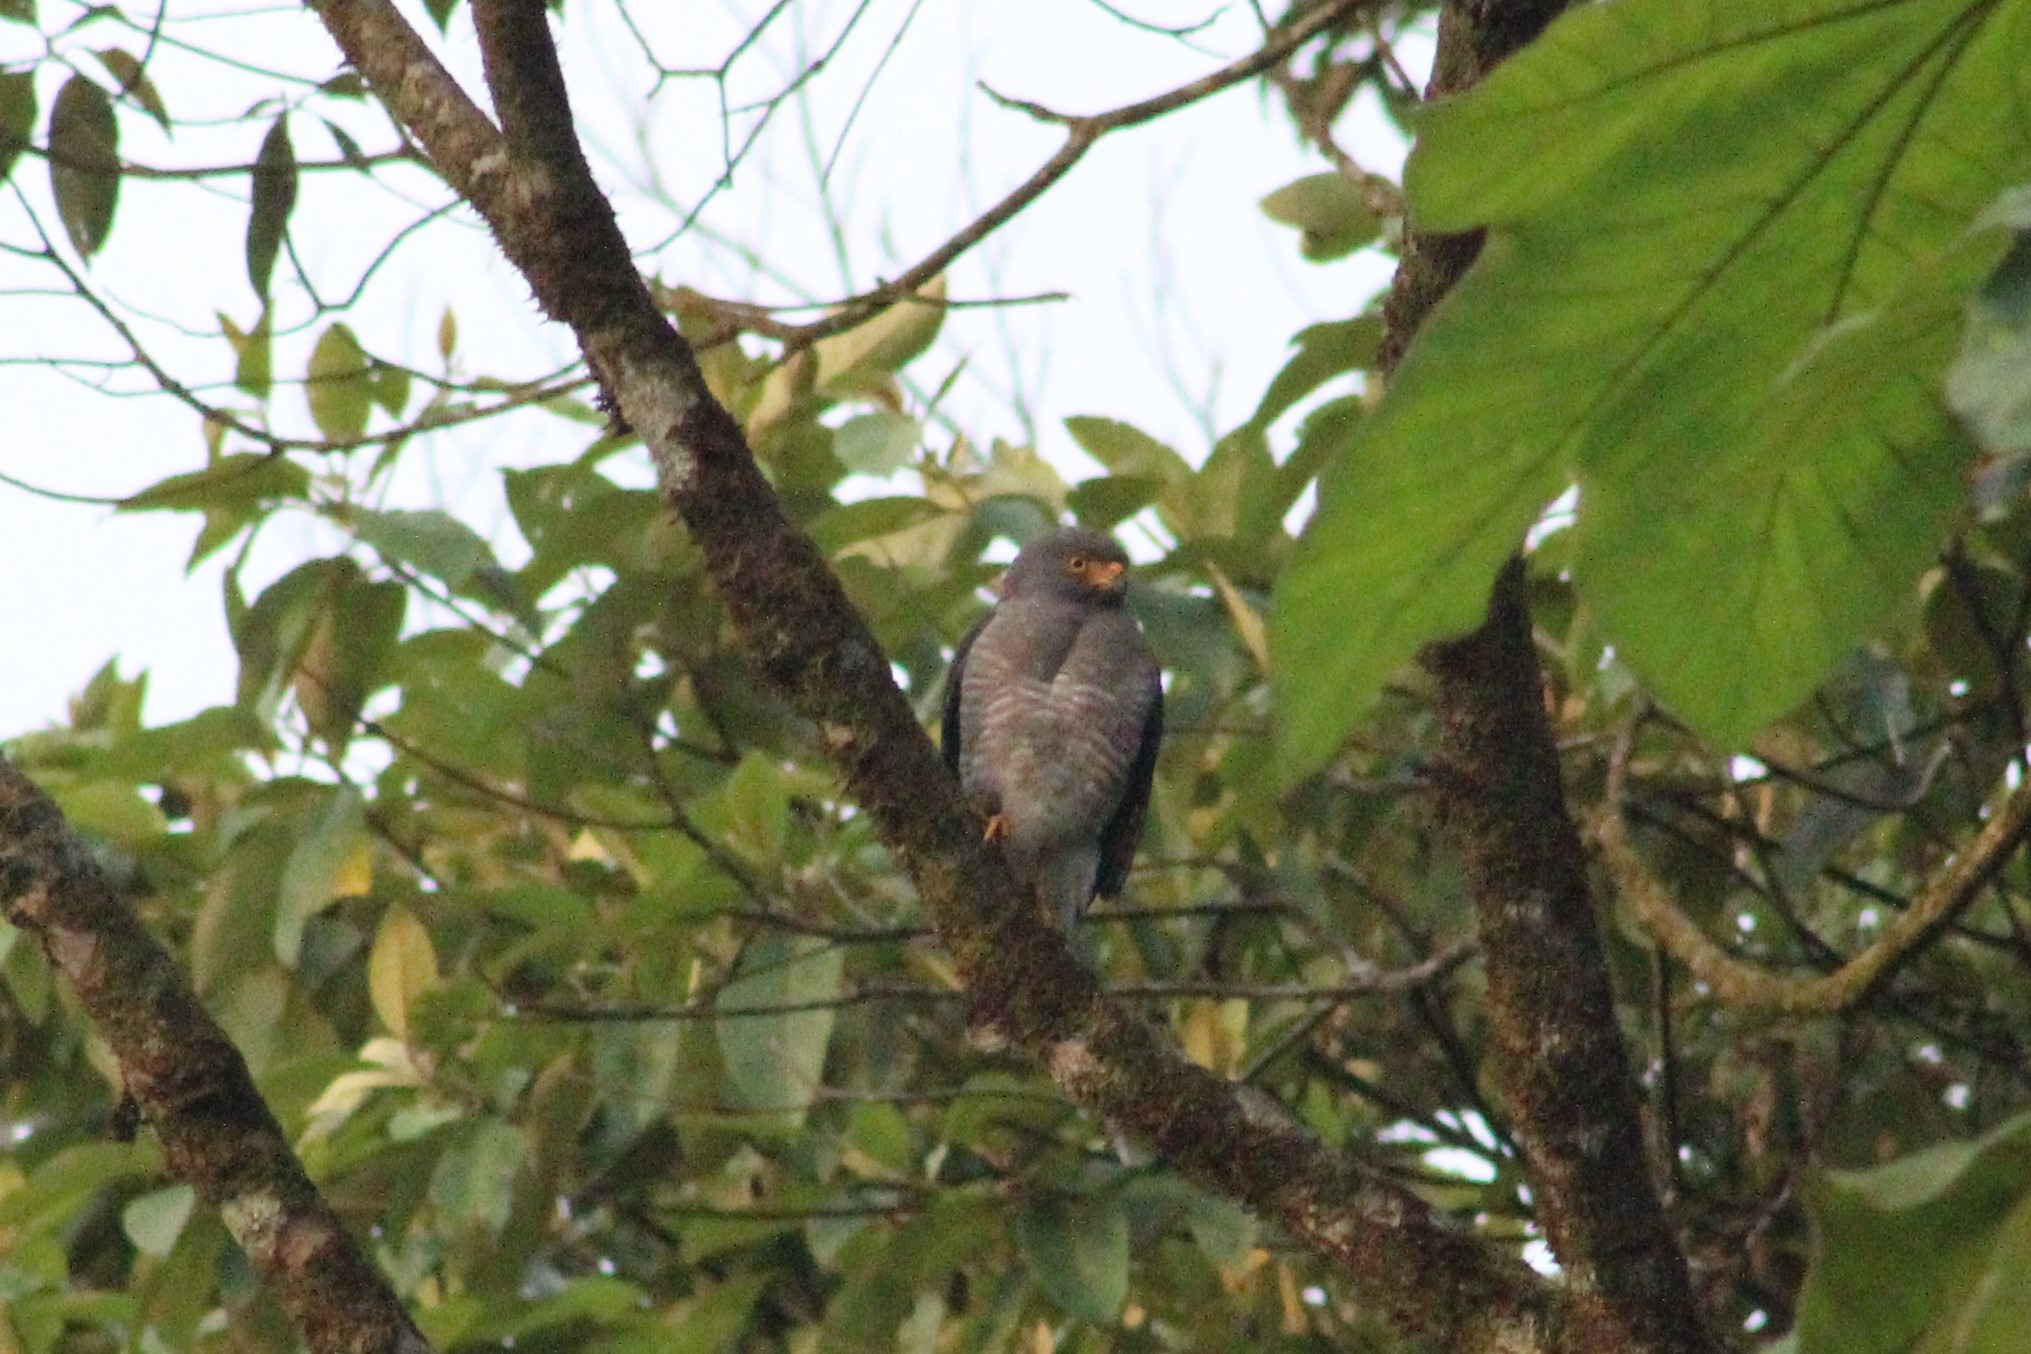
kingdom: Animalia
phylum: Chordata
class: Aves
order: Accipitriformes
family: Accipitridae
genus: Rupornis
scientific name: Rupornis magnirostris
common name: Roadside hawk
